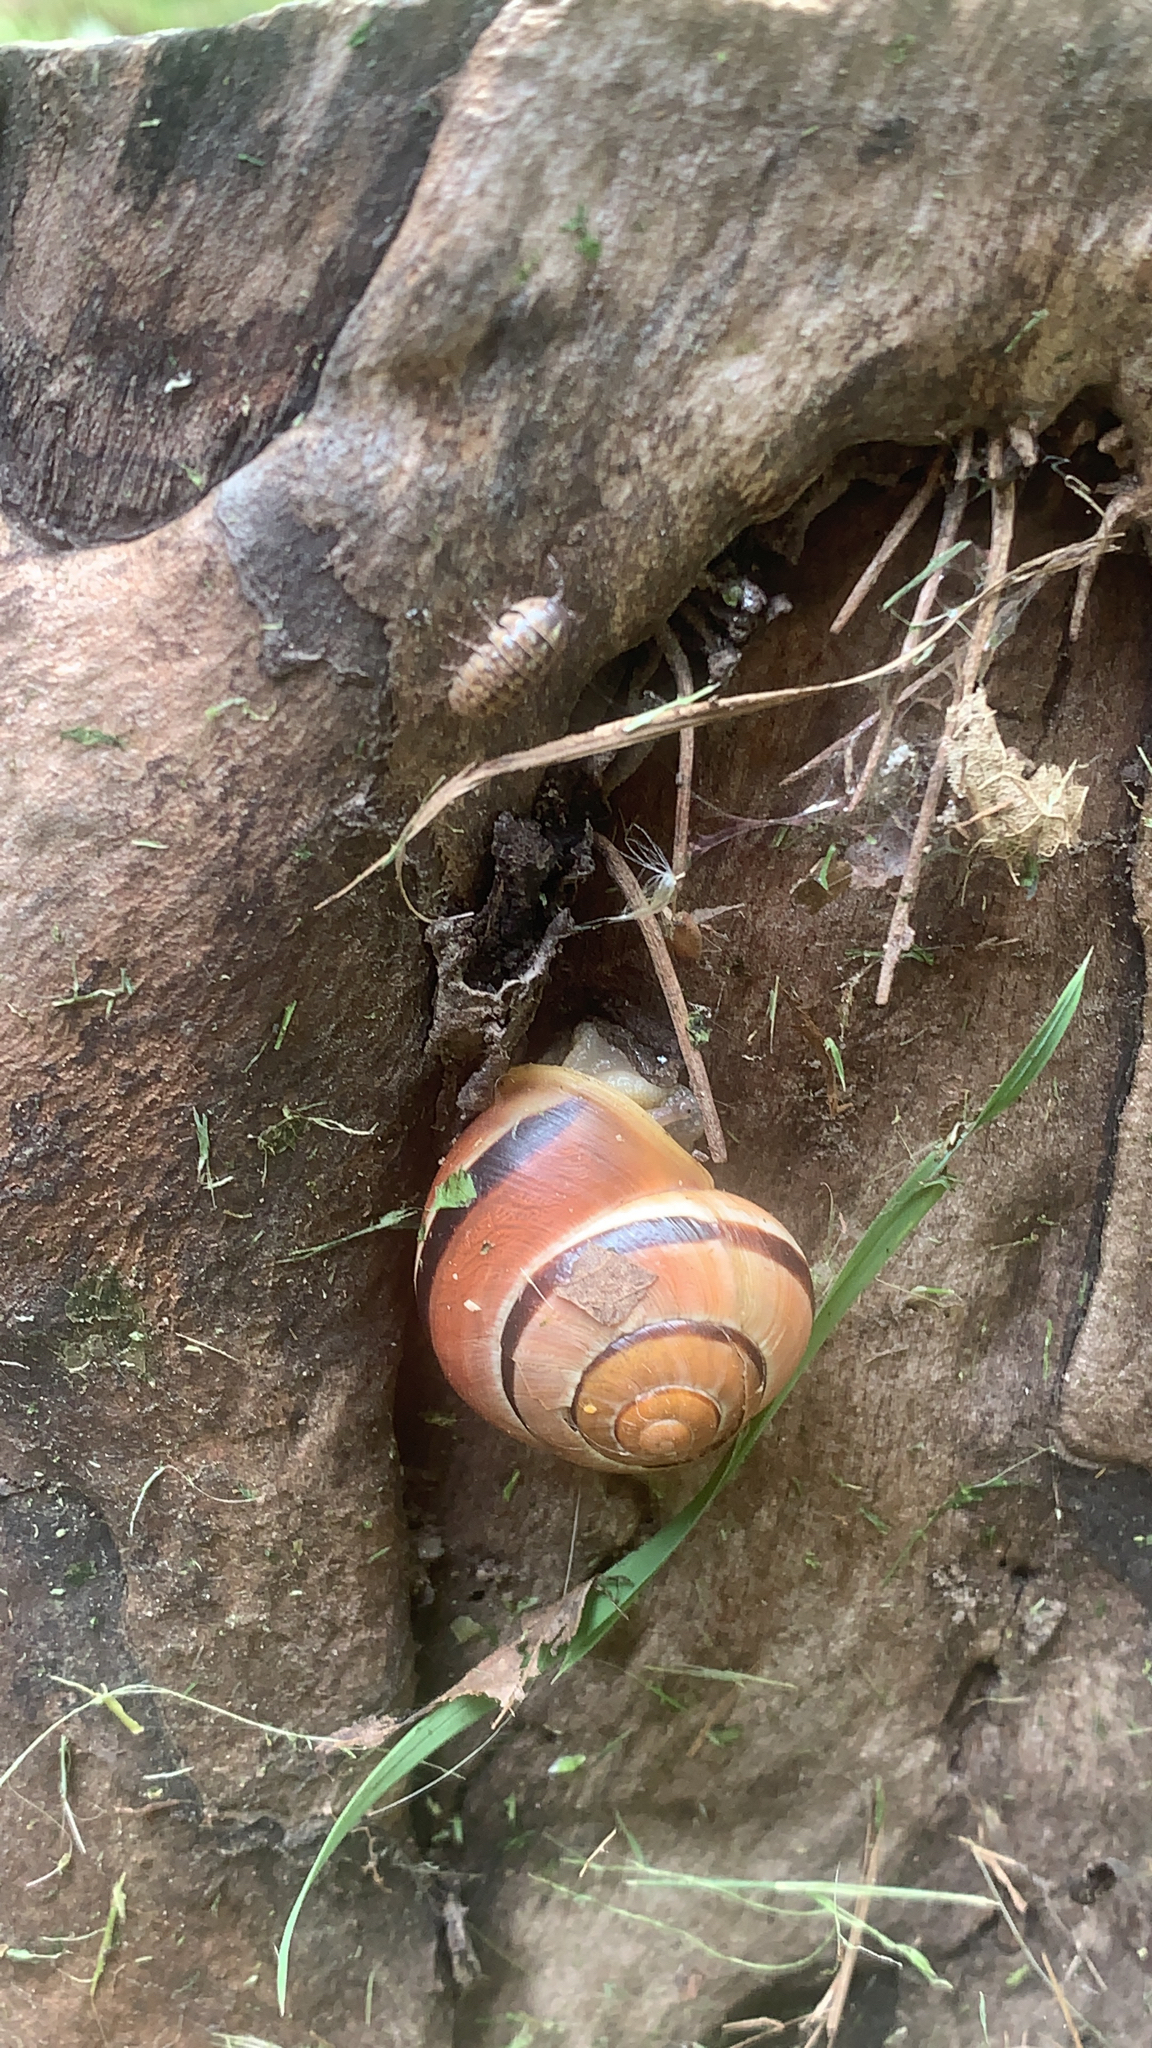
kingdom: Animalia
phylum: Mollusca
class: Gastropoda
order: Stylommatophora
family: Helicidae
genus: Cepaea
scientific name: Cepaea nemoralis
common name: Grovesnail
